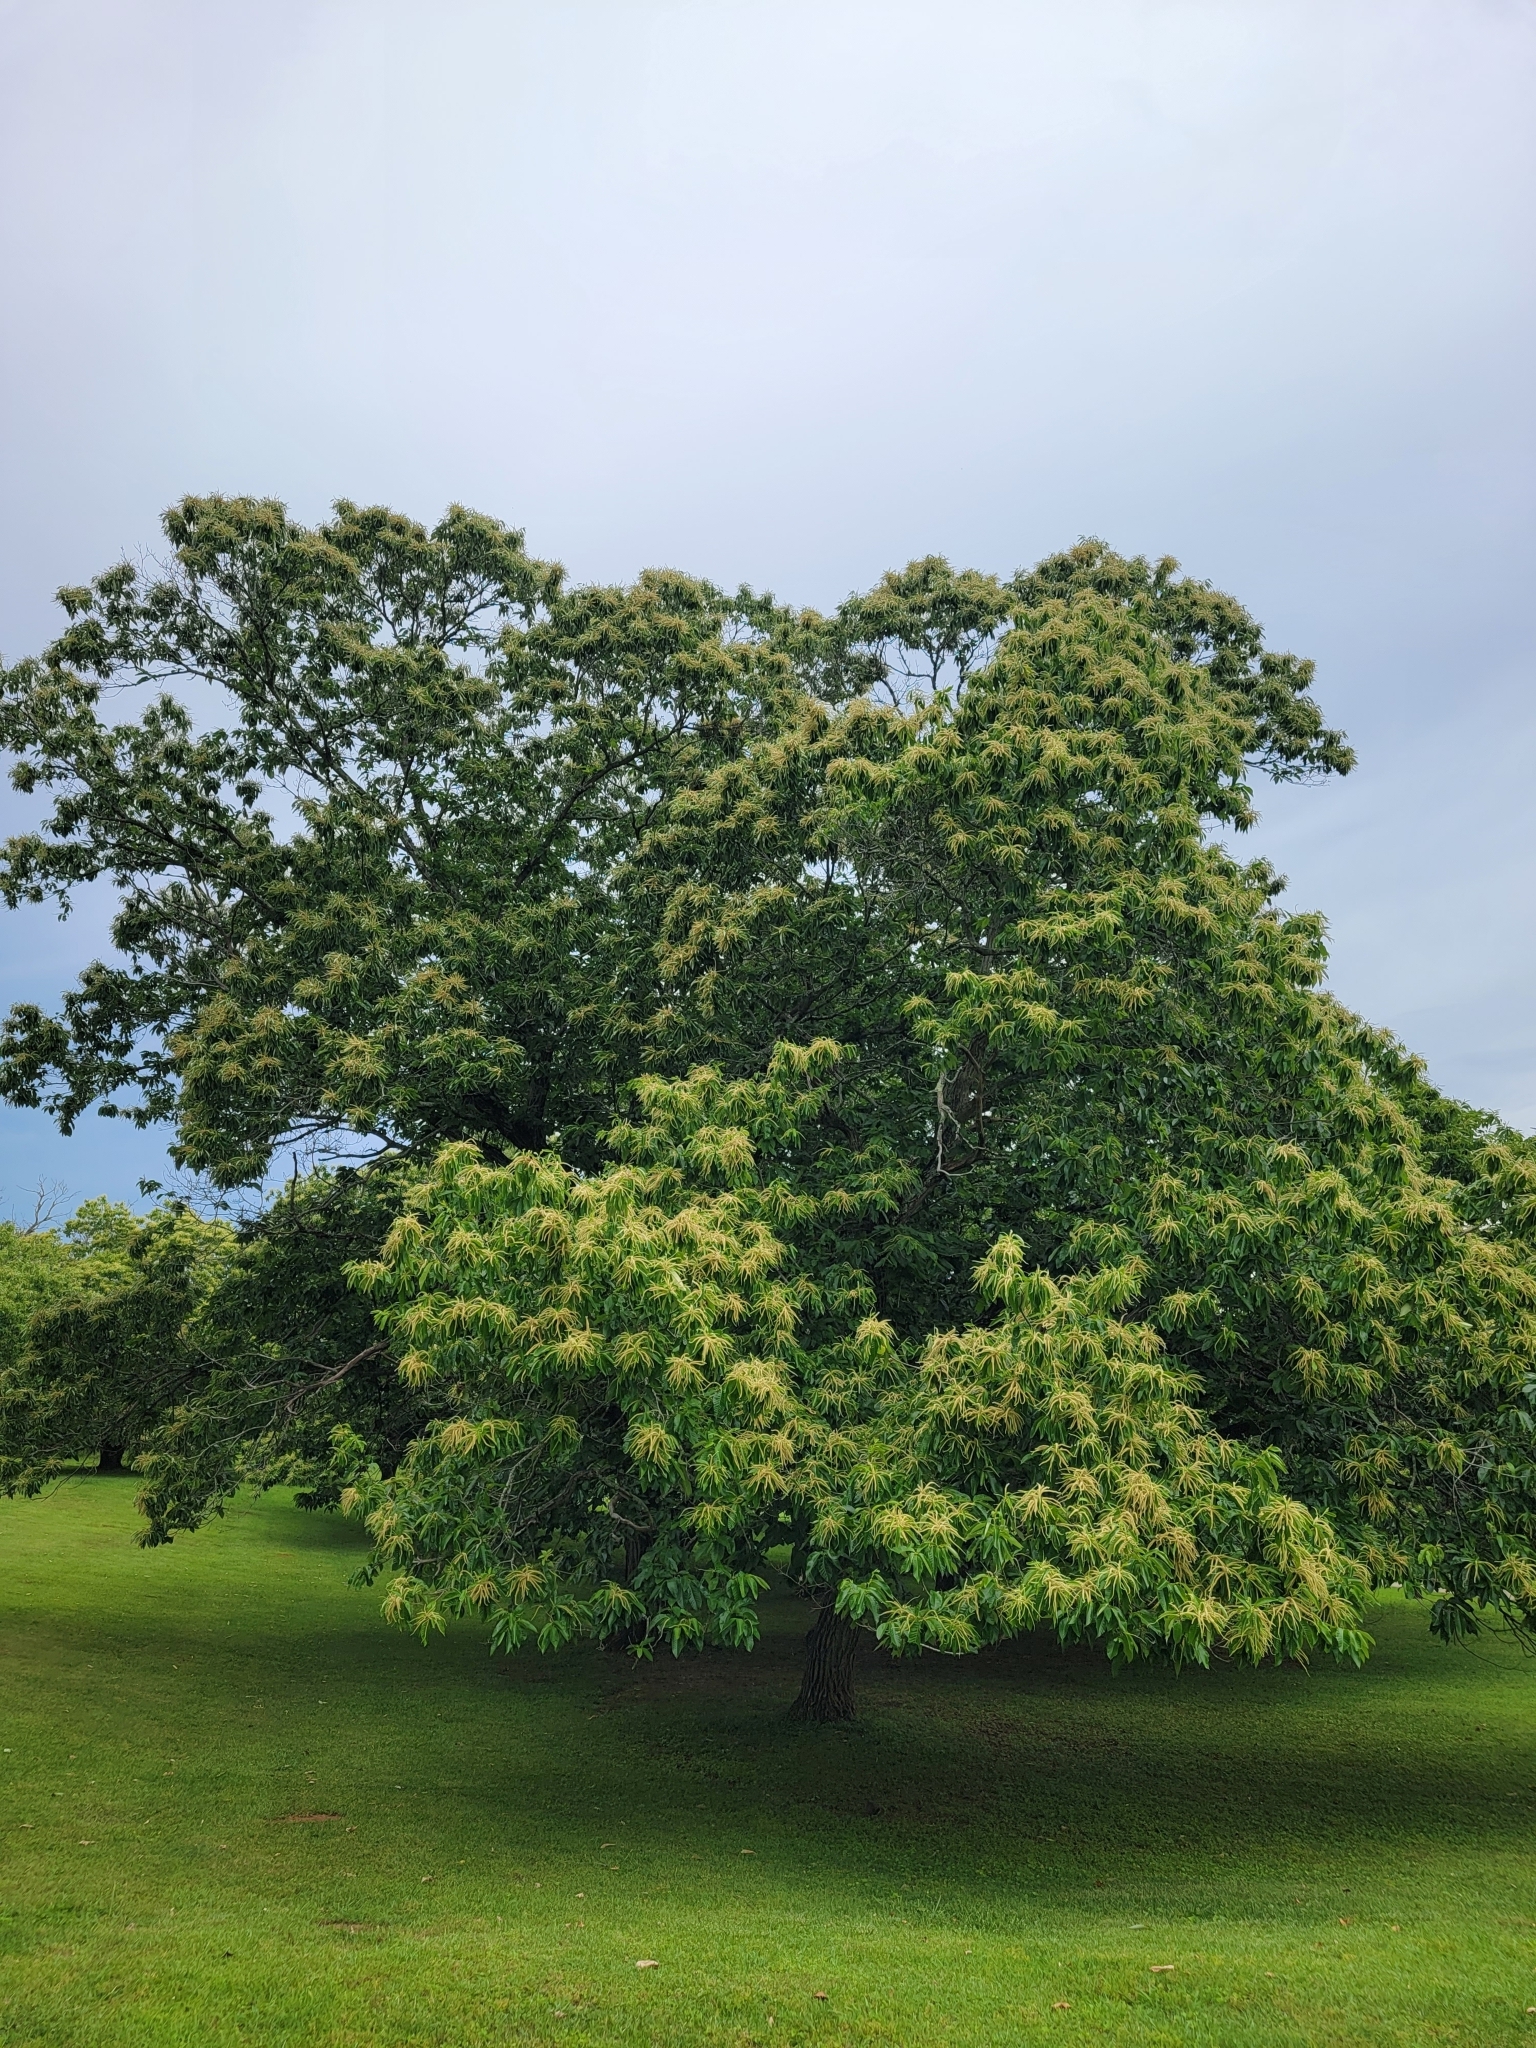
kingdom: Plantae
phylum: Tracheophyta
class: Magnoliopsida
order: Fagales
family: Fagaceae
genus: Castanea
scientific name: Castanea mollissima
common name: Chinese chestnut
